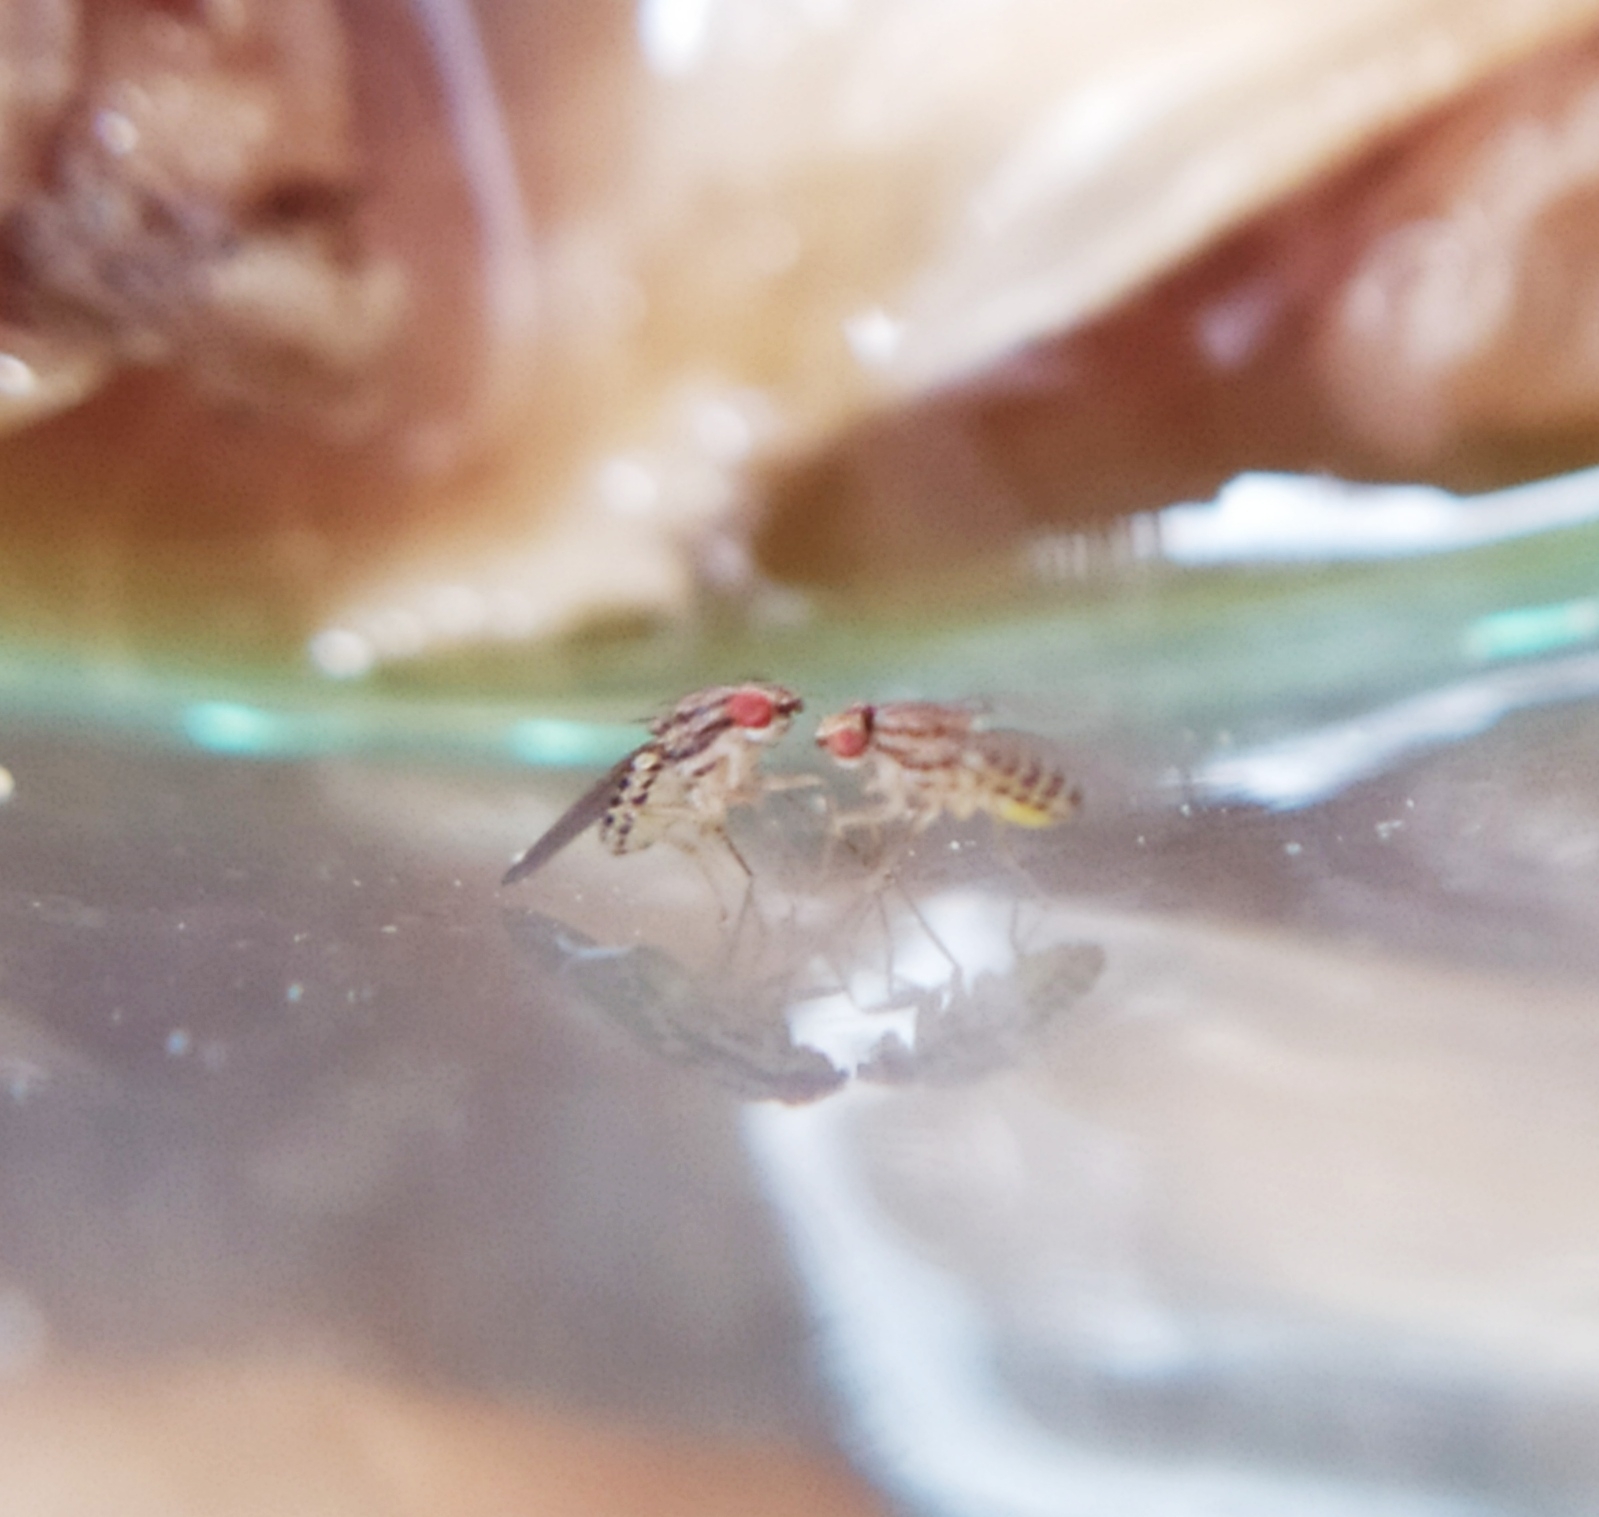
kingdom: Animalia
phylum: Arthropoda
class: Insecta
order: Diptera
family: Drosophilidae
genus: Drosophila
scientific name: Drosophila busckii
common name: Pomace fly
